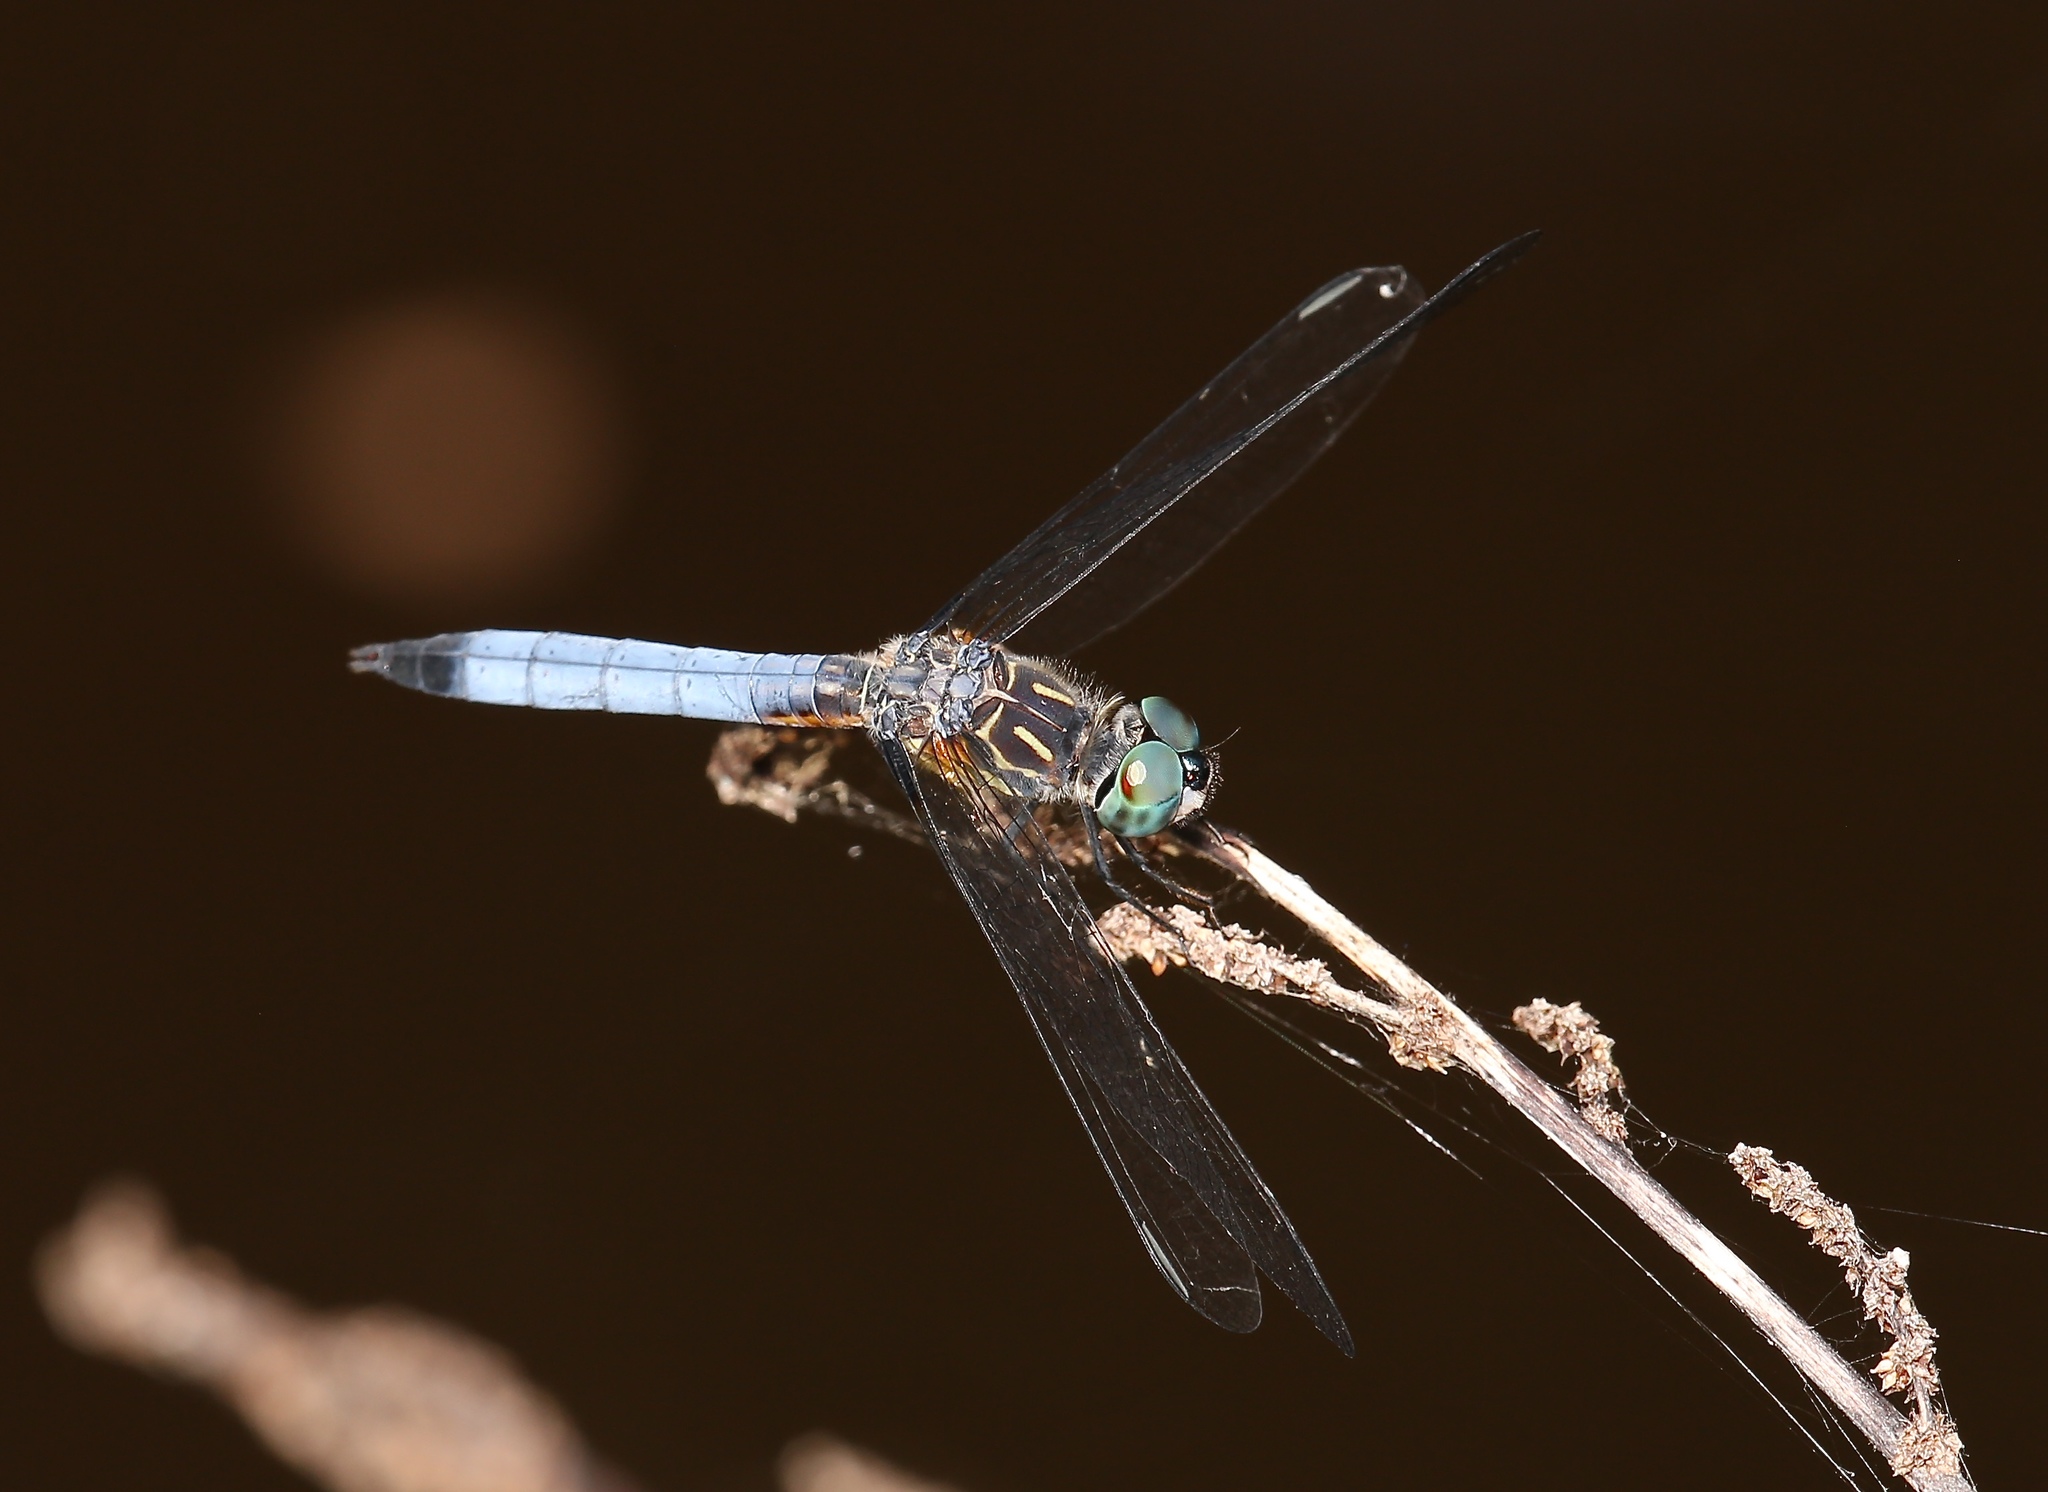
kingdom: Animalia
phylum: Arthropoda
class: Insecta
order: Odonata
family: Libellulidae
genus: Pachydiplax
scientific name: Pachydiplax longipennis
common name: Blue dasher
